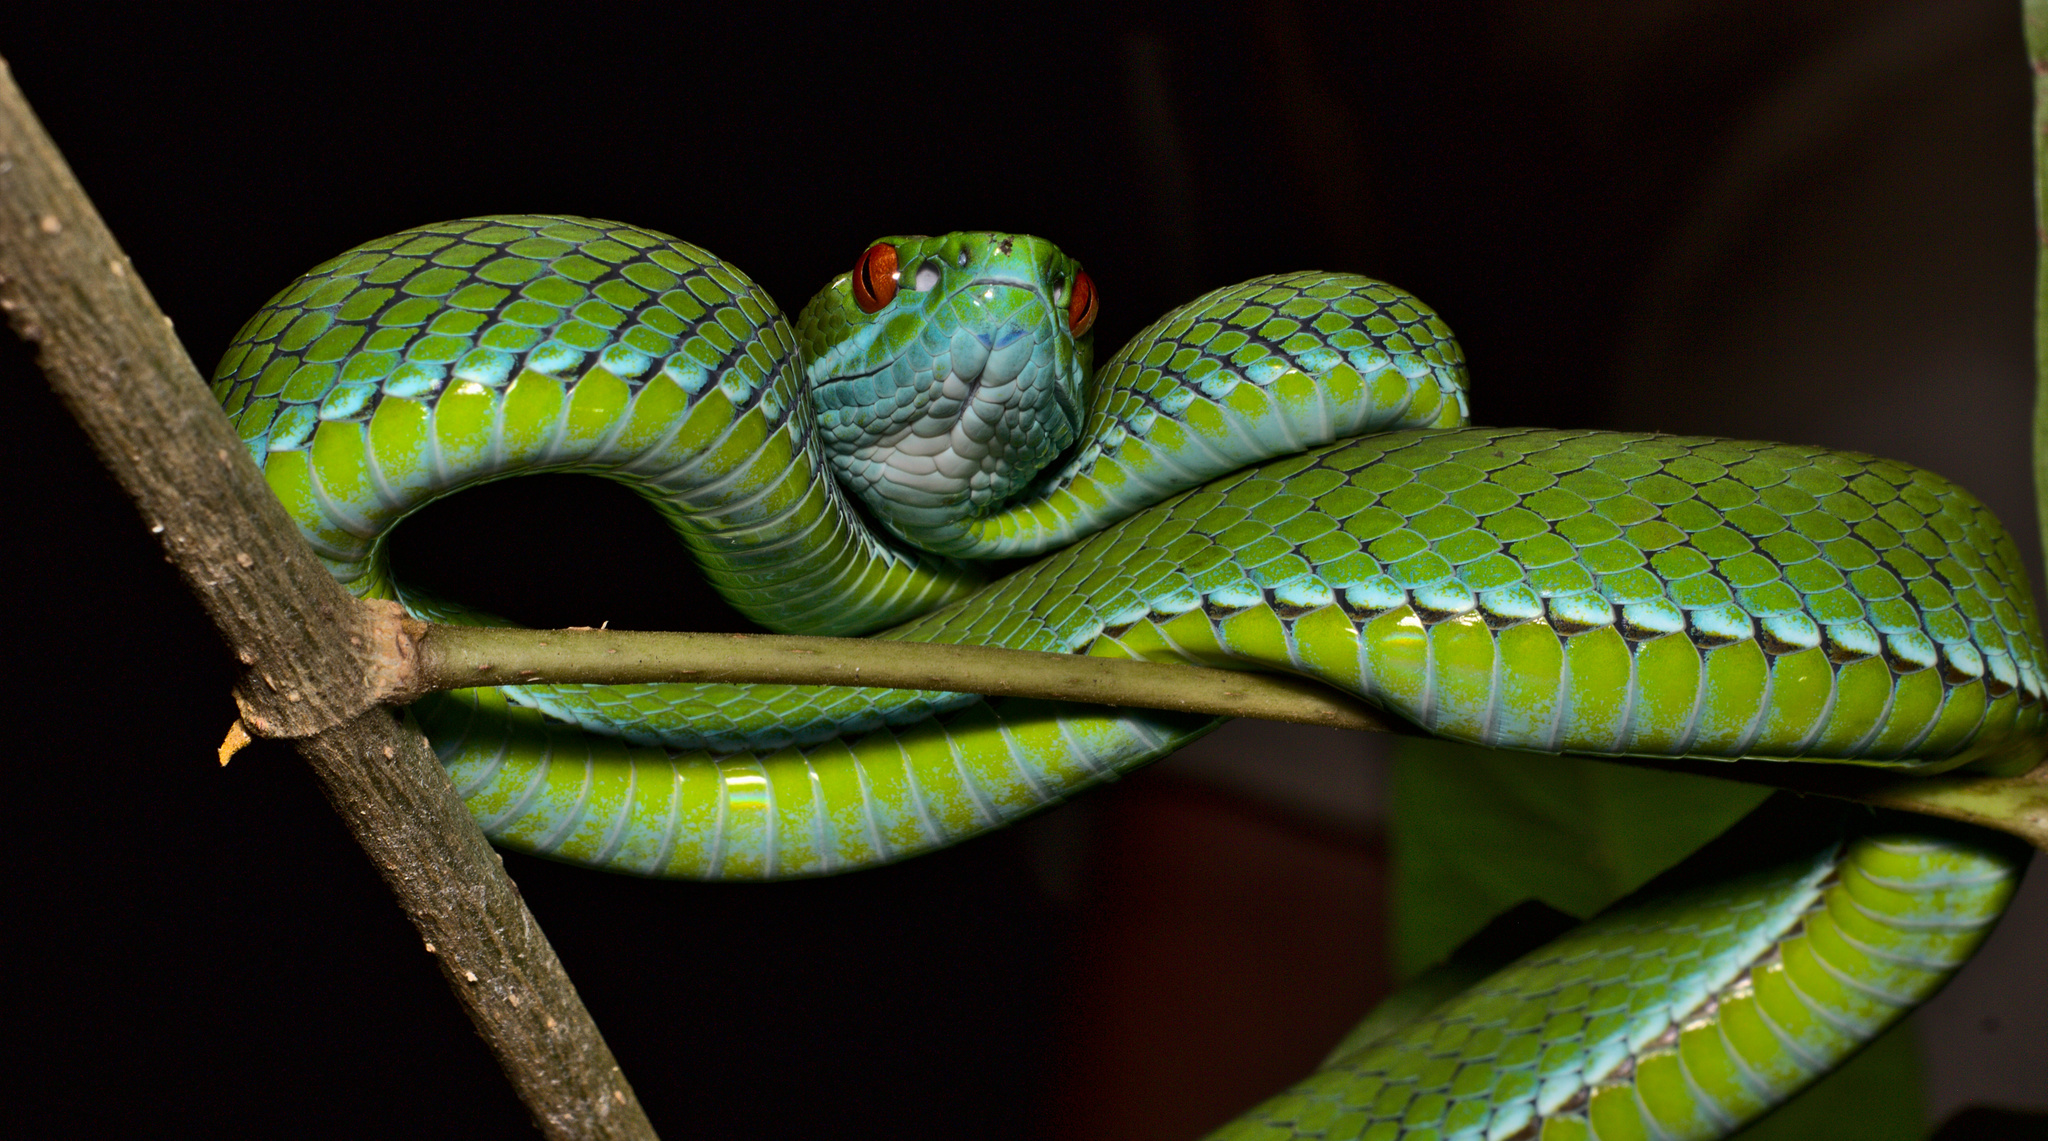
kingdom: Animalia
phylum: Chordata
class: Squamata
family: Viperidae
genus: Craspedocephalus
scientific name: Craspedocephalus rubeus
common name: Ruby-eyed green pitviper
